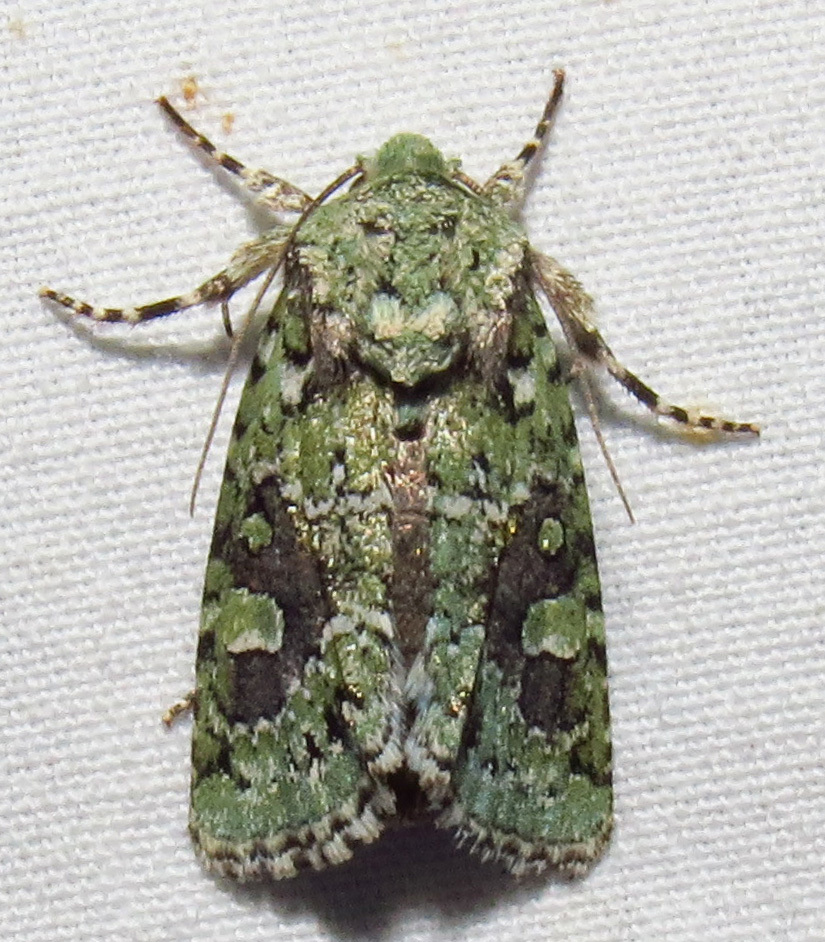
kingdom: Animalia
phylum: Arthropoda
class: Insecta
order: Lepidoptera
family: Noctuidae
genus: Lacinipolia
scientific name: Lacinipolia laudabilis
